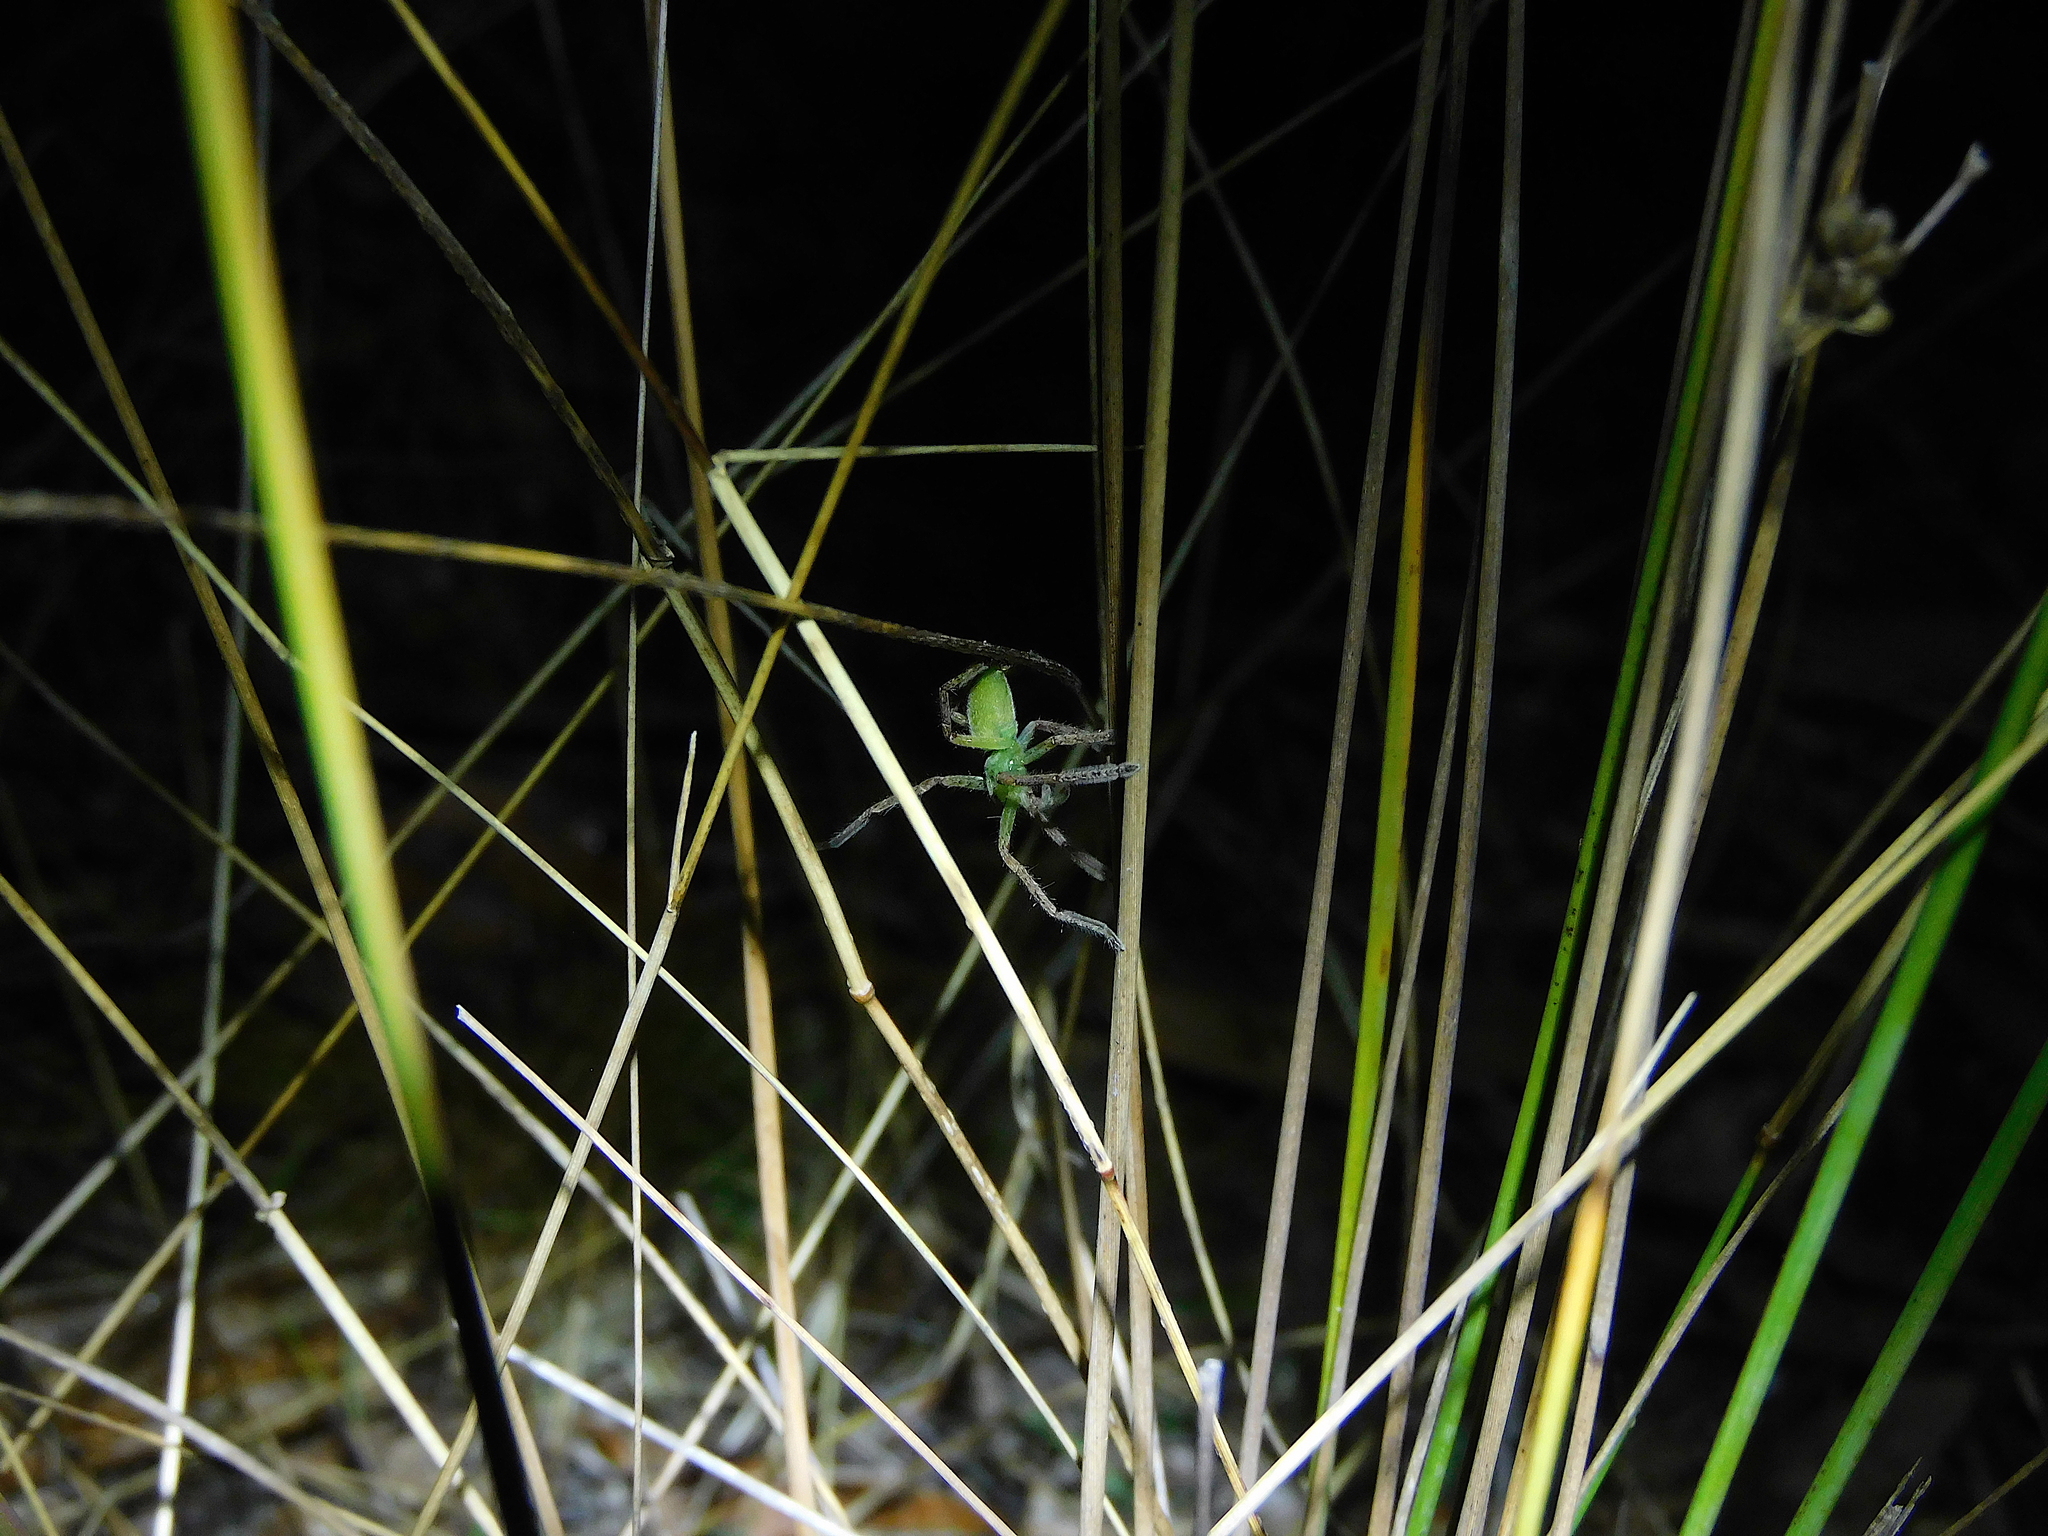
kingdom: Animalia
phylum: Arthropoda
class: Arachnida
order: Araneae
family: Sparassidae
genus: Neosparassus
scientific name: Neosparassus patellatus
